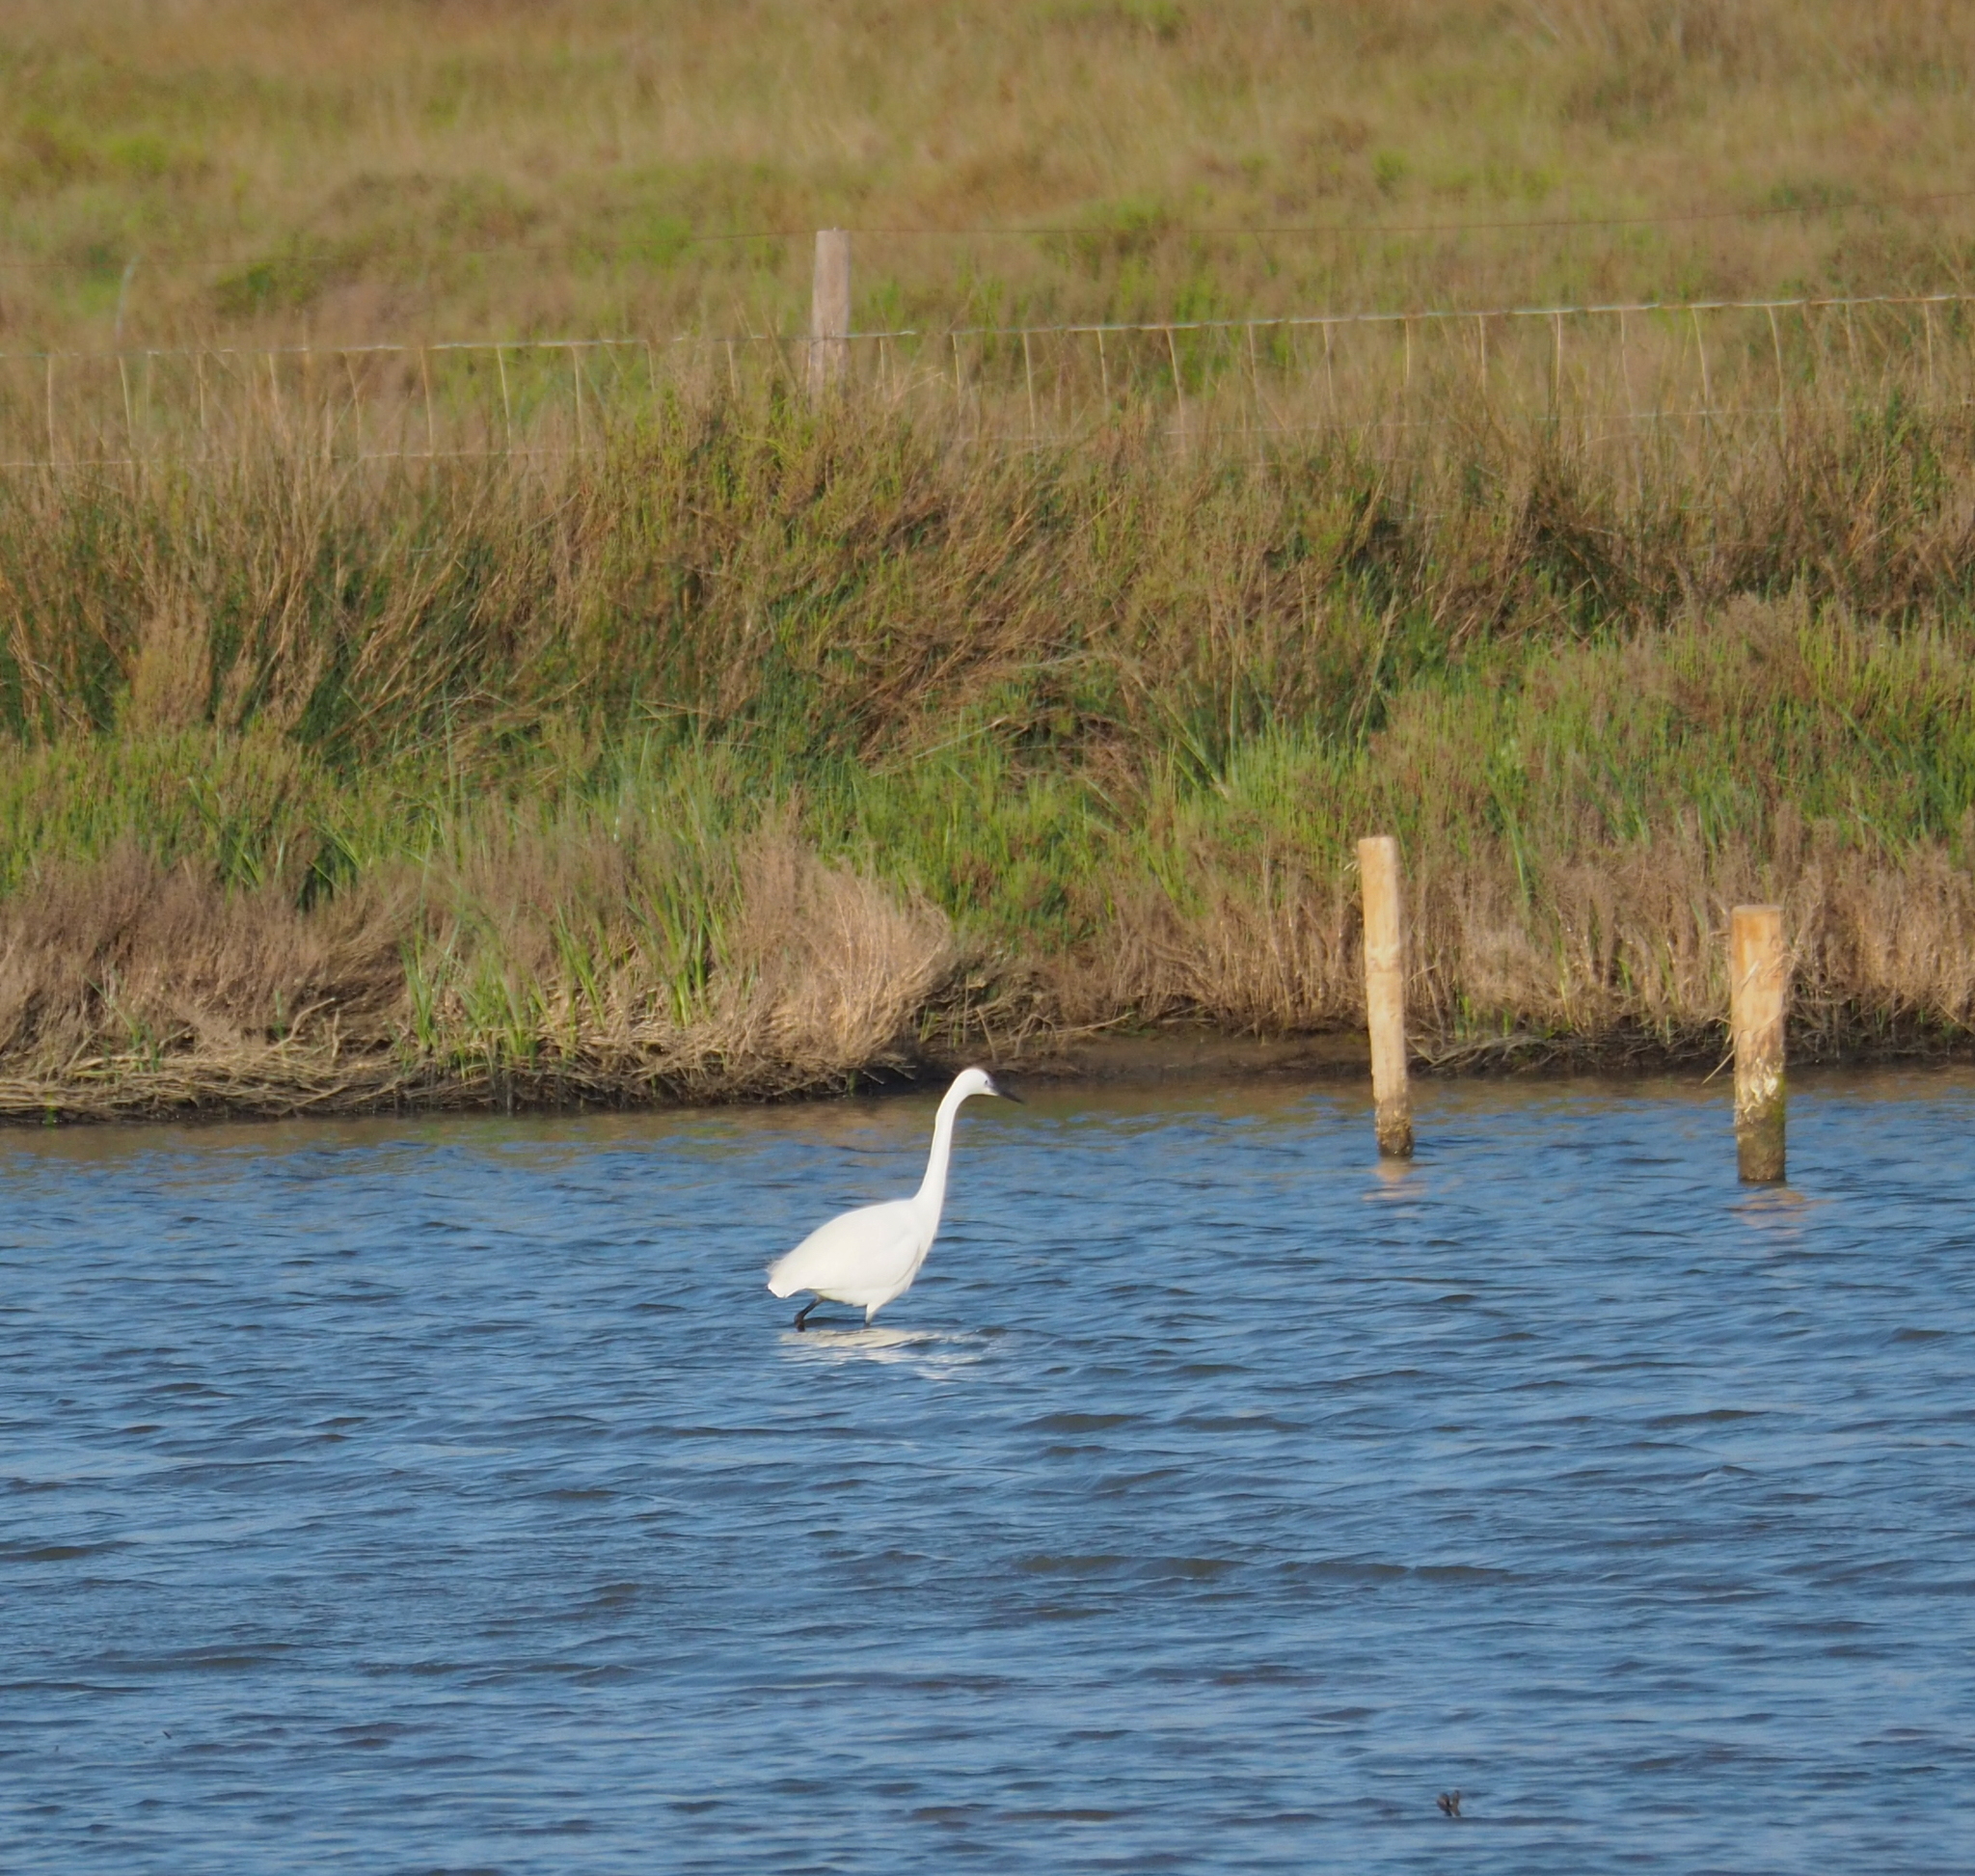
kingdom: Animalia
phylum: Chordata
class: Aves
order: Pelecaniformes
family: Ardeidae
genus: Egretta
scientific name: Egretta garzetta
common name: Little egret
